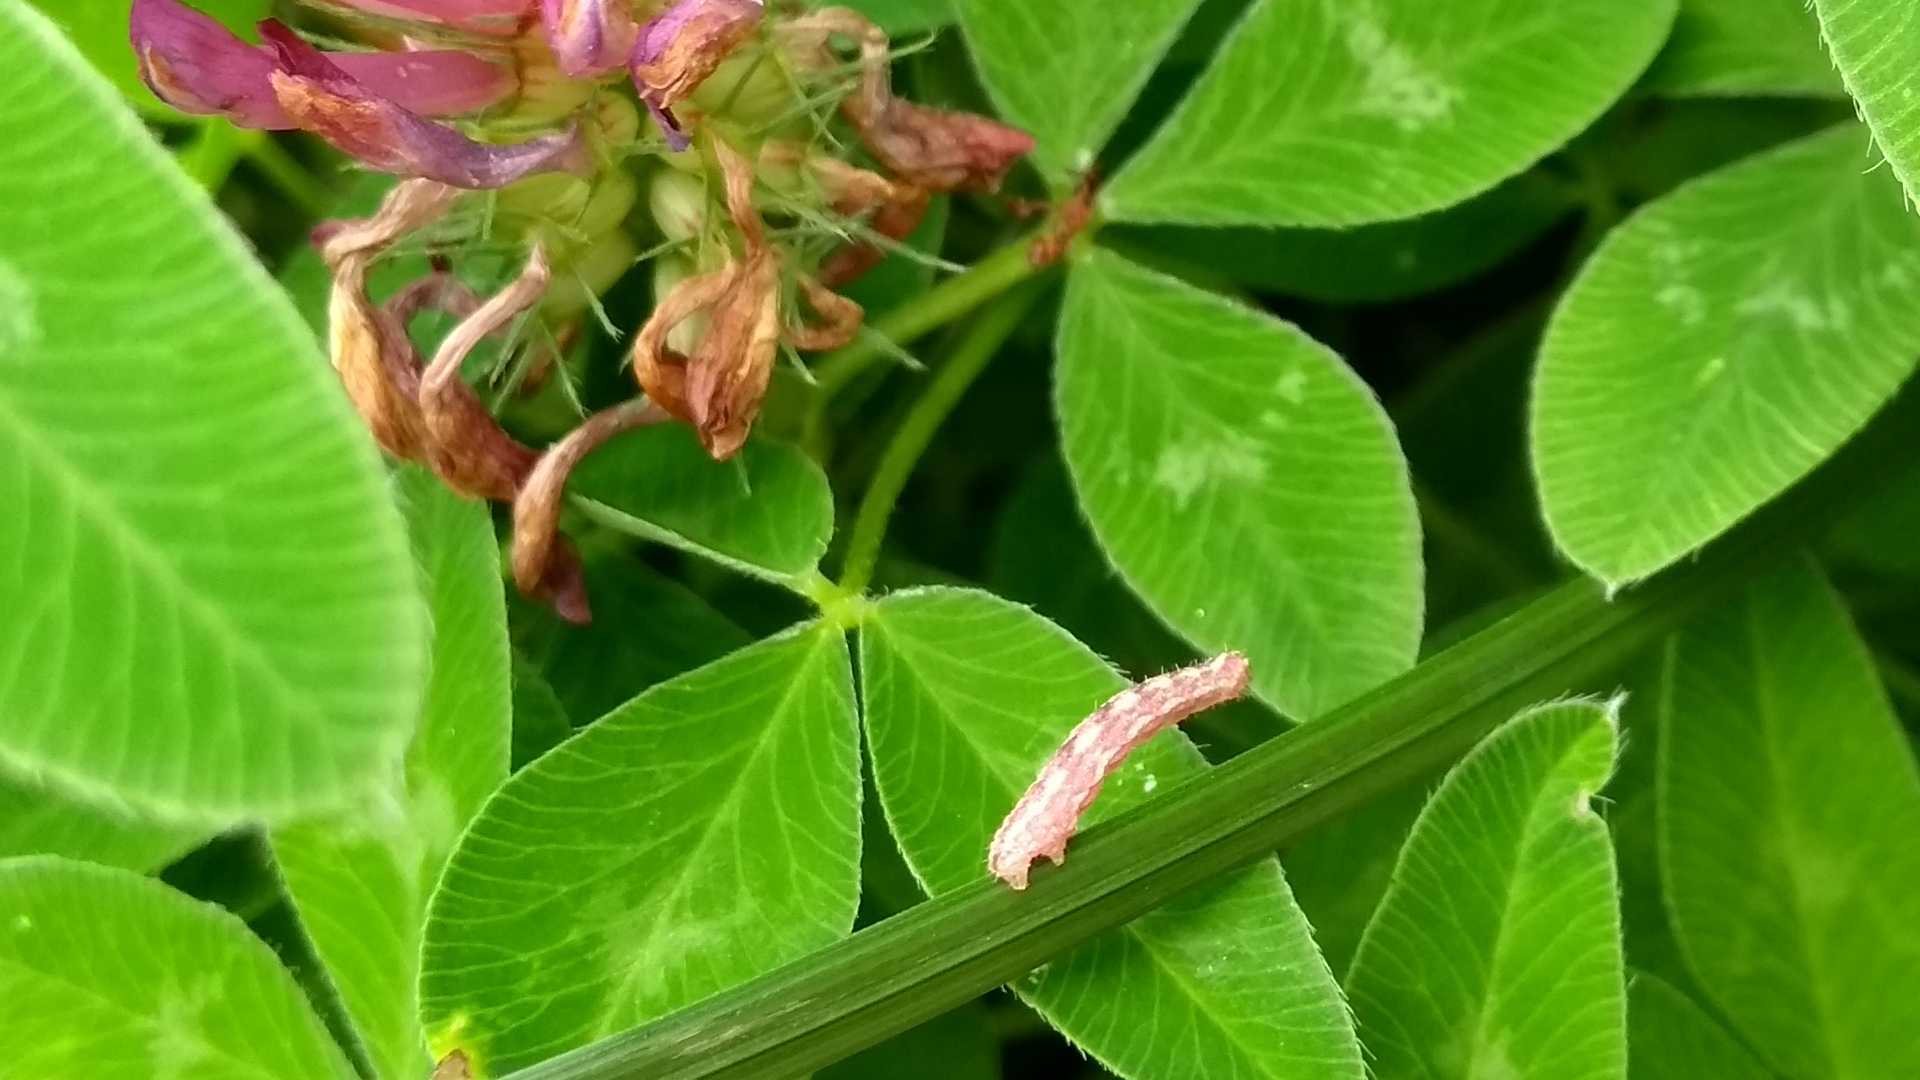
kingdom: Animalia
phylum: Arthropoda
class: Insecta
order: Lepidoptera
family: Geometridae
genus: Gymnoscelis
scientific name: Gymnoscelis rufifasciata
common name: Double-striped pug
